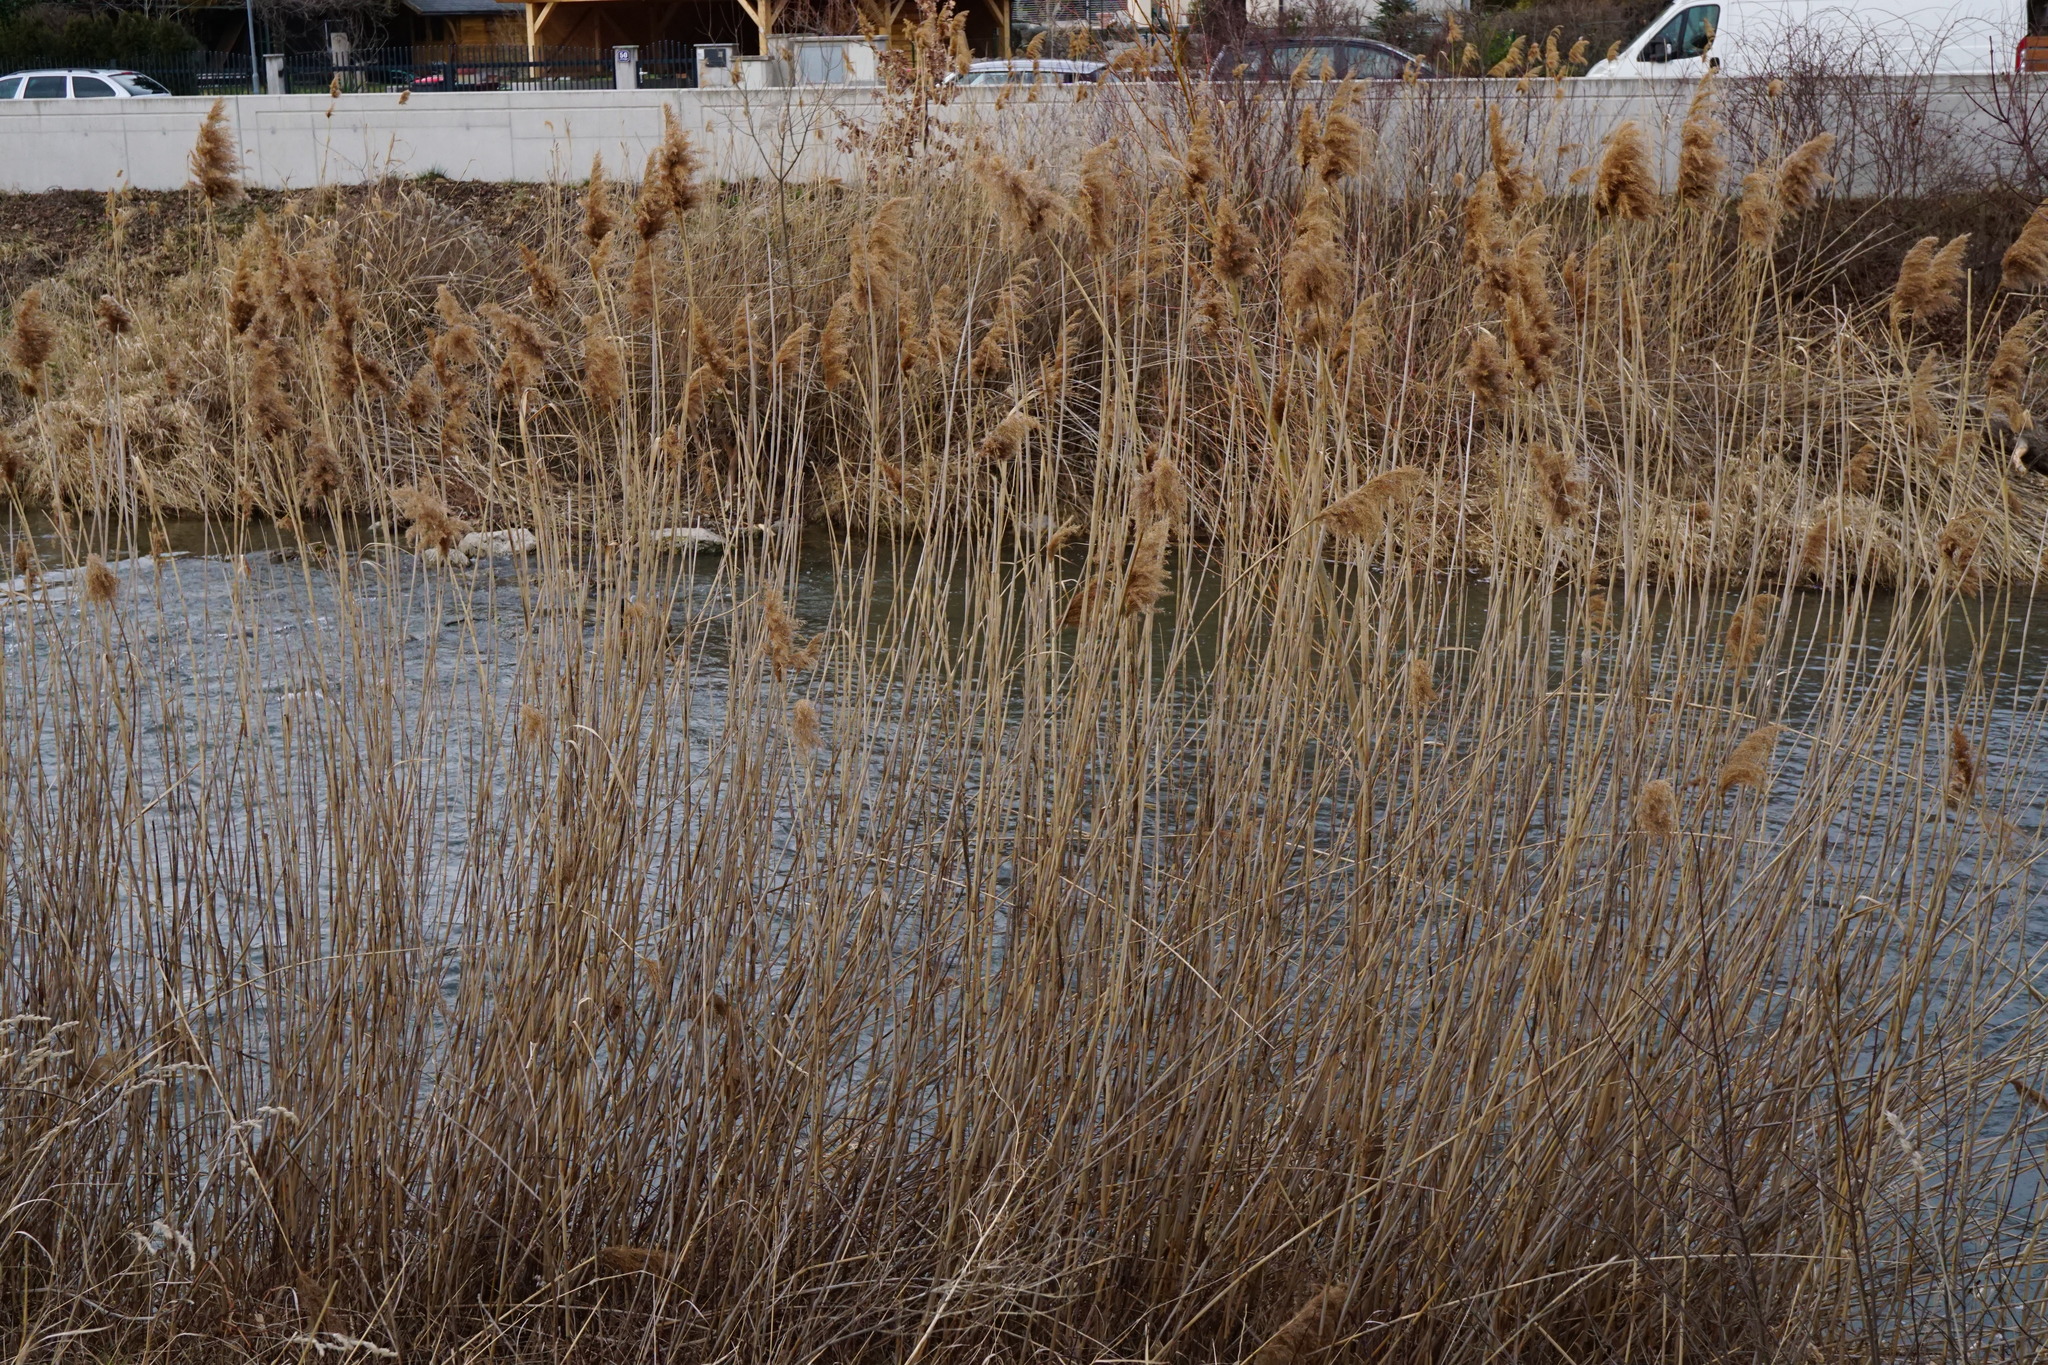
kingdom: Plantae
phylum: Tracheophyta
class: Liliopsida
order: Poales
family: Poaceae
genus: Phragmites
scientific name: Phragmites australis
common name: Common reed
